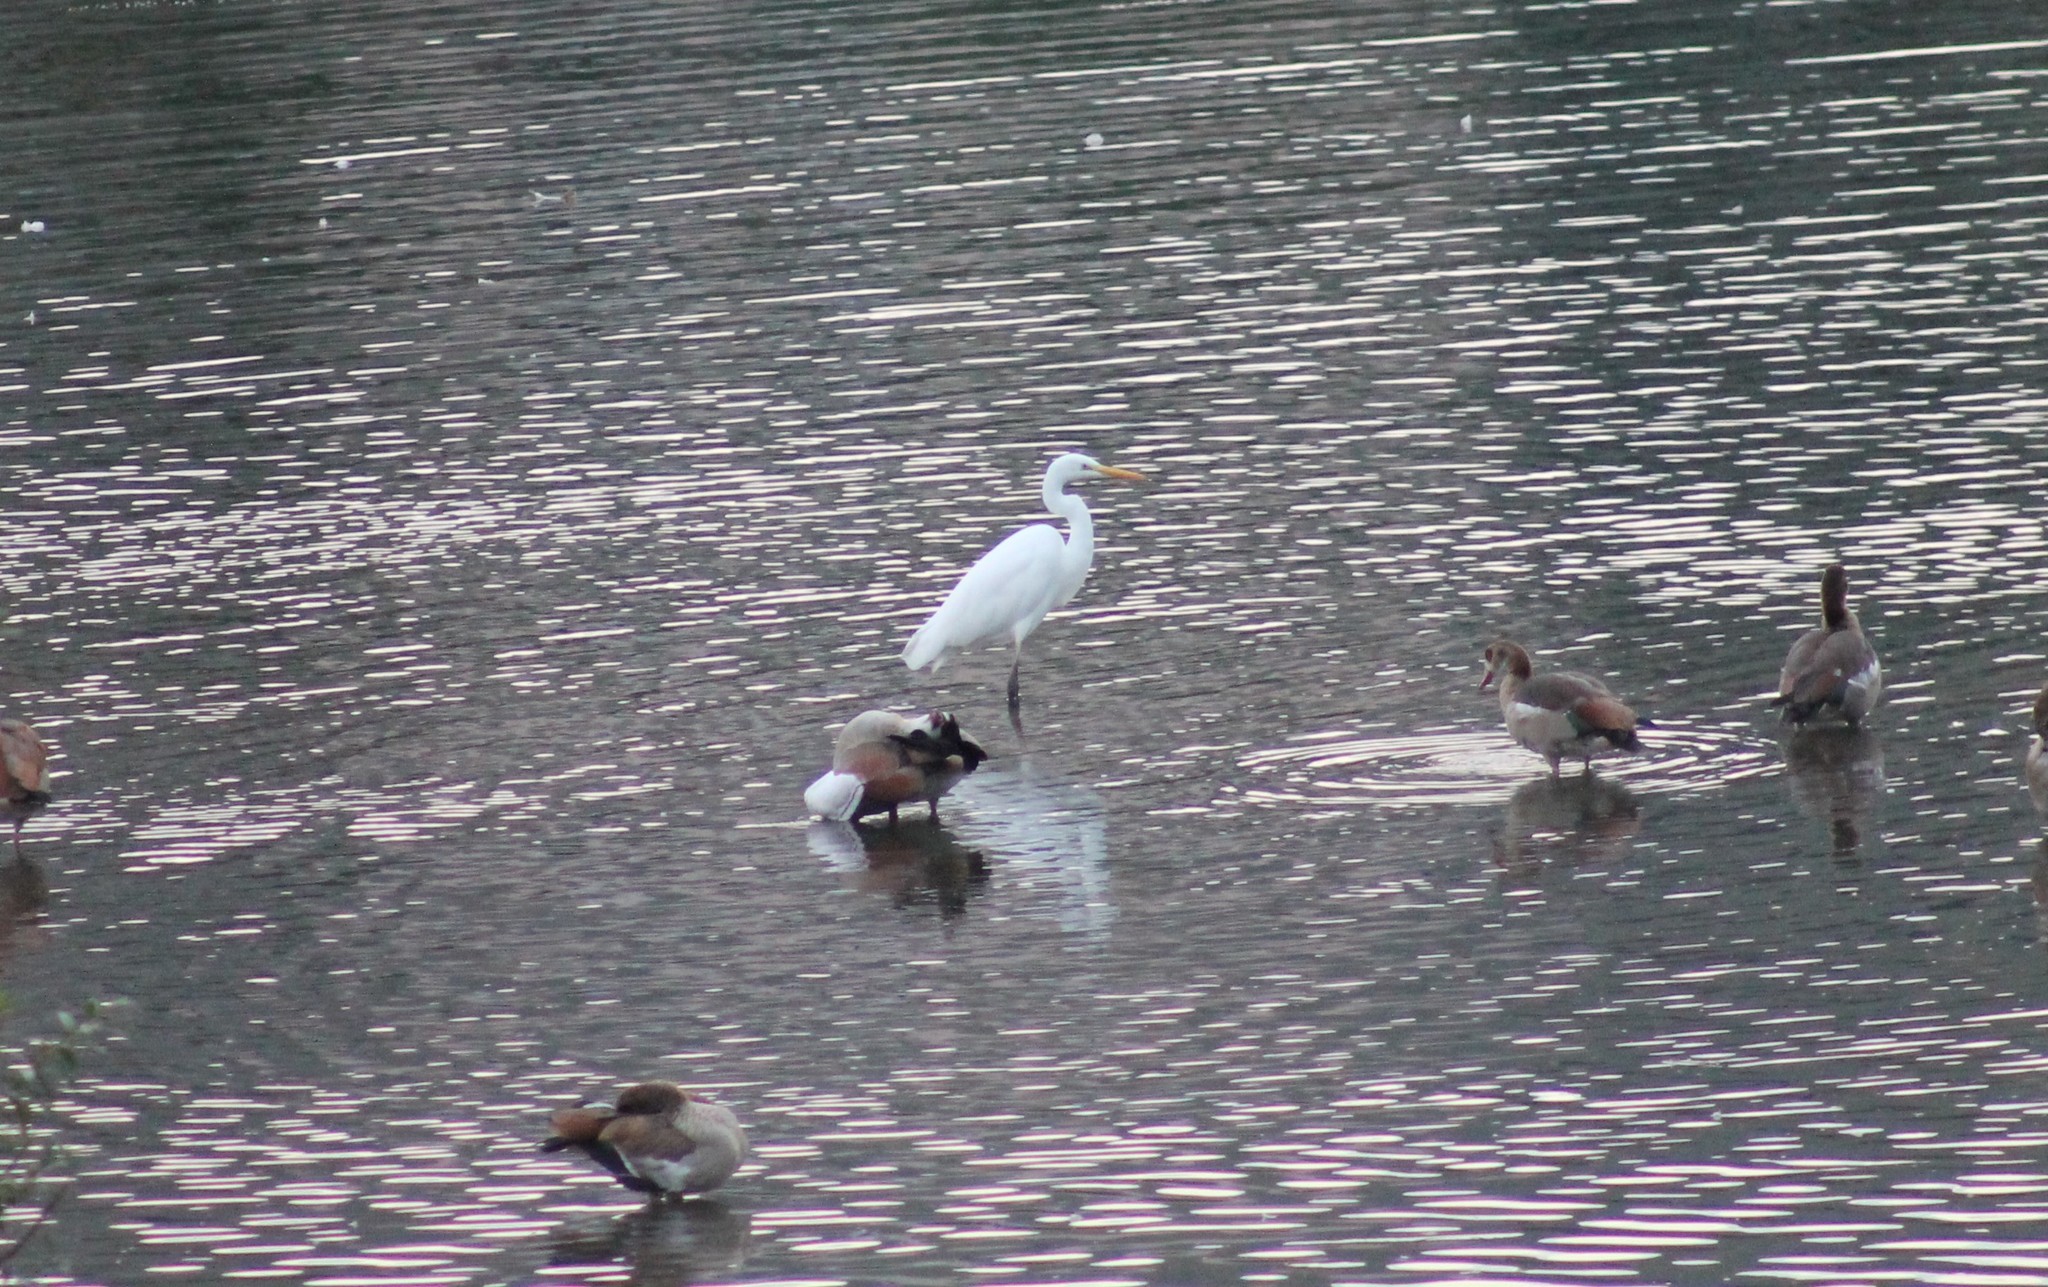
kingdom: Animalia
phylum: Chordata
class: Aves
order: Pelecaniformes
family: Ardeidae
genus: Ardea
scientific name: Ardea alba
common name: Great egret
